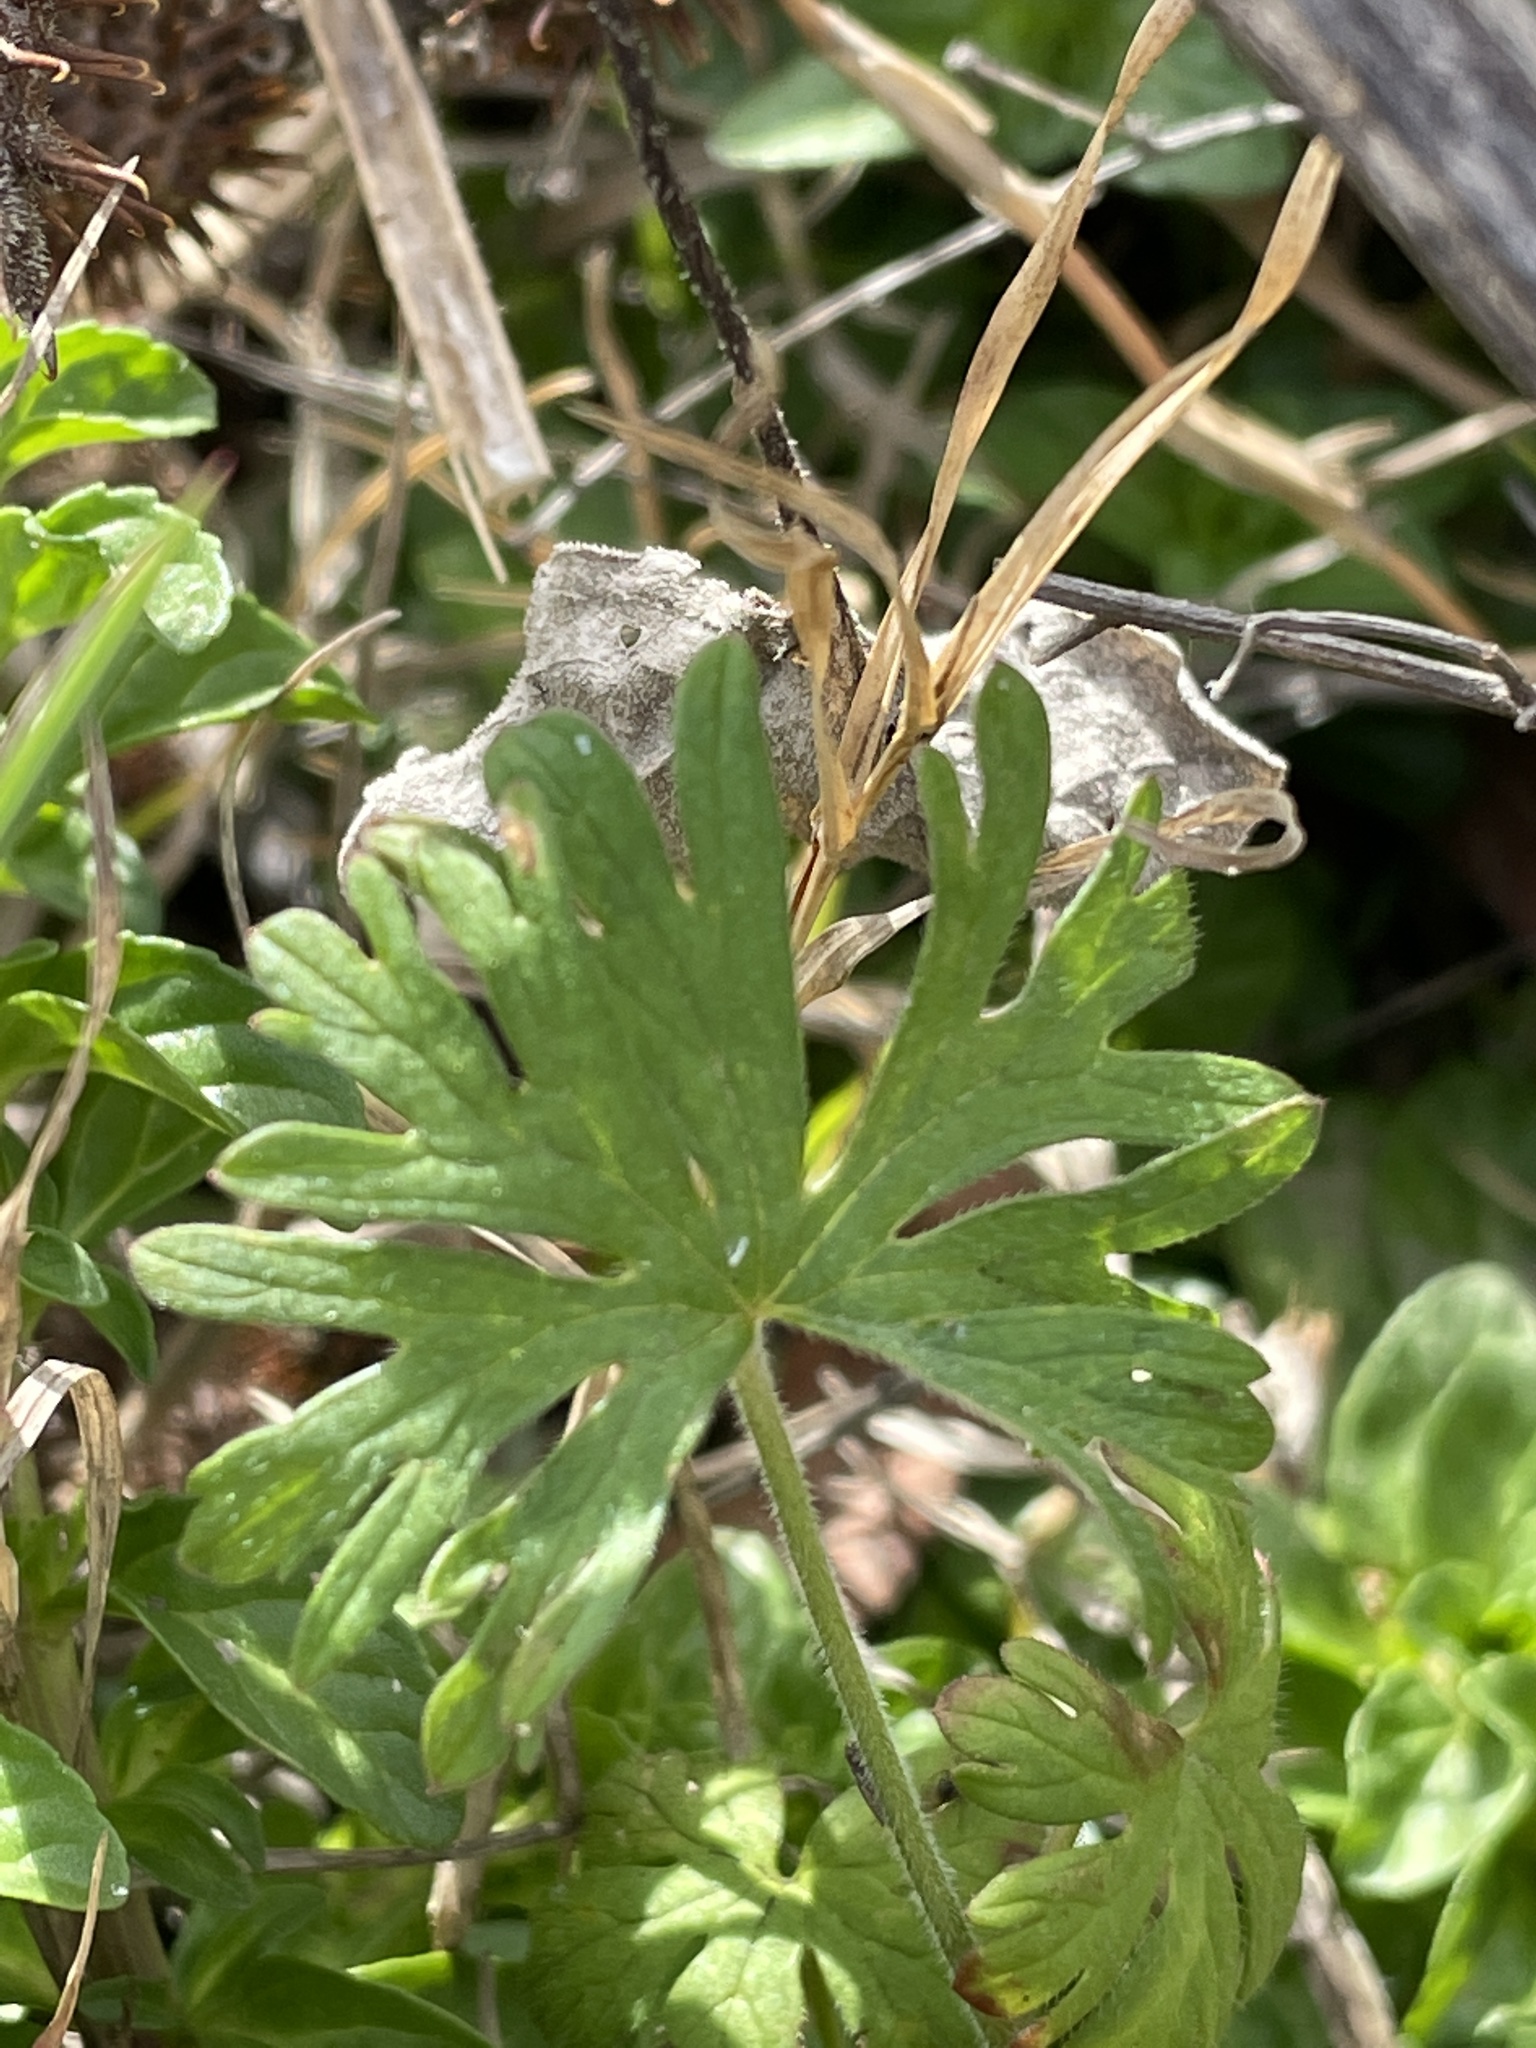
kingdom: Plantae
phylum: Tracheophyta
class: Magnoliopsida
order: Geraniales
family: Geraniaceae
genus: Geranium
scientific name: Geranium
